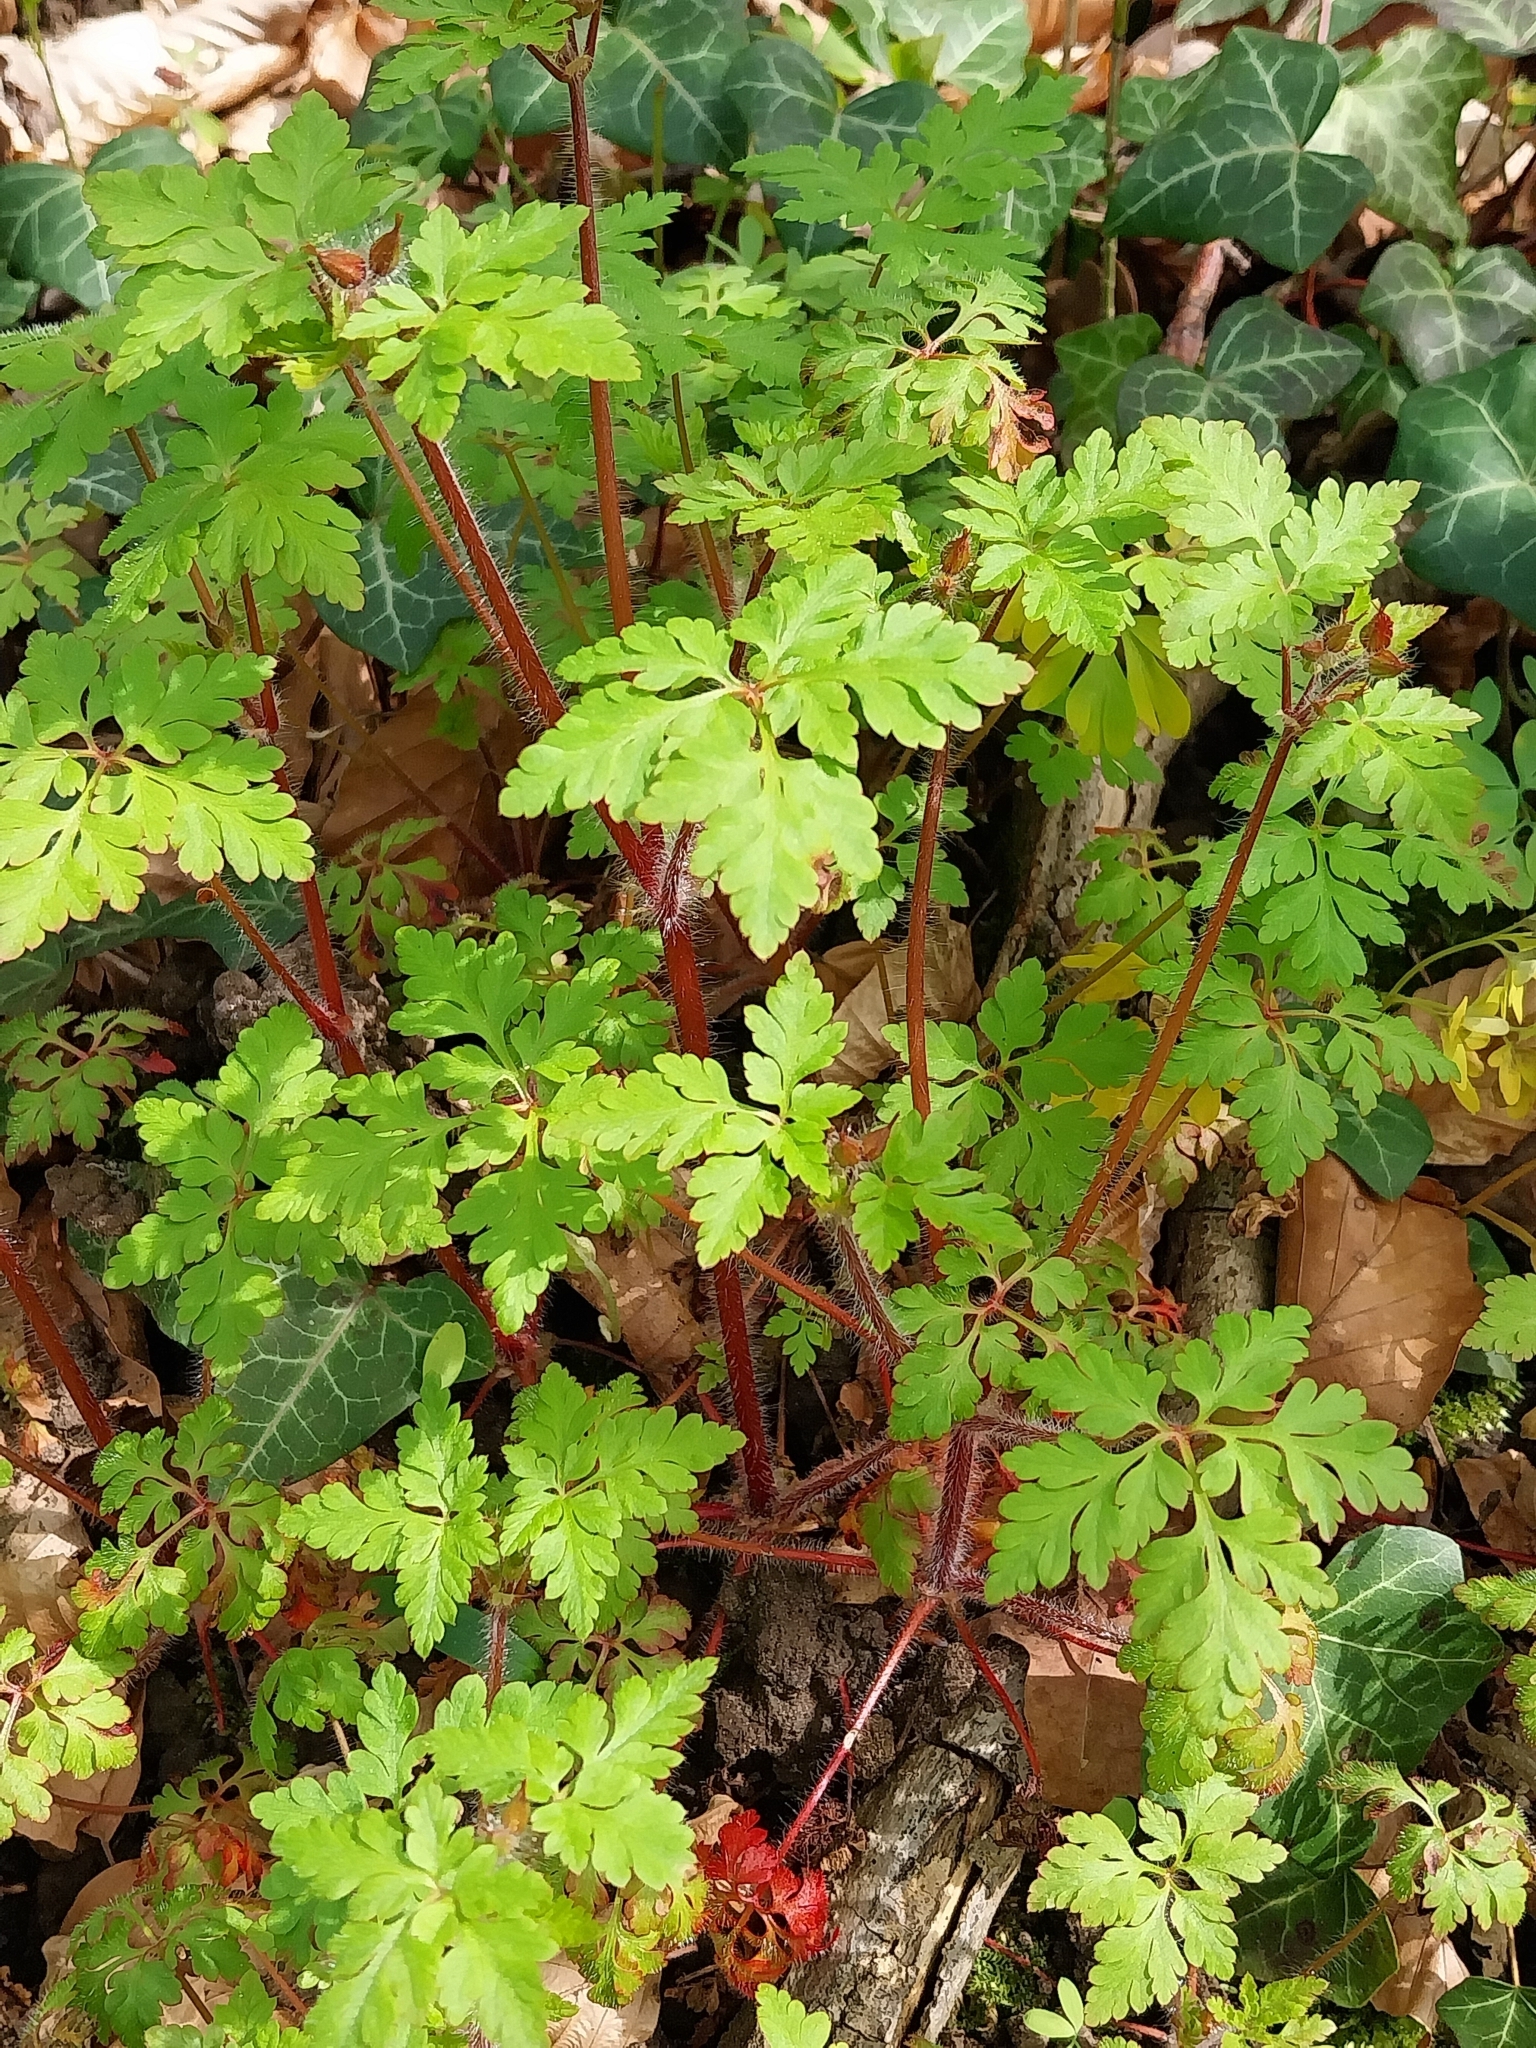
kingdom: Plantae
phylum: Tracheophyta
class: Magnoliopsida
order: Geraniales
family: Geraniaceae
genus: Geranium
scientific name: Geranium robertianum
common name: Herb-robert
